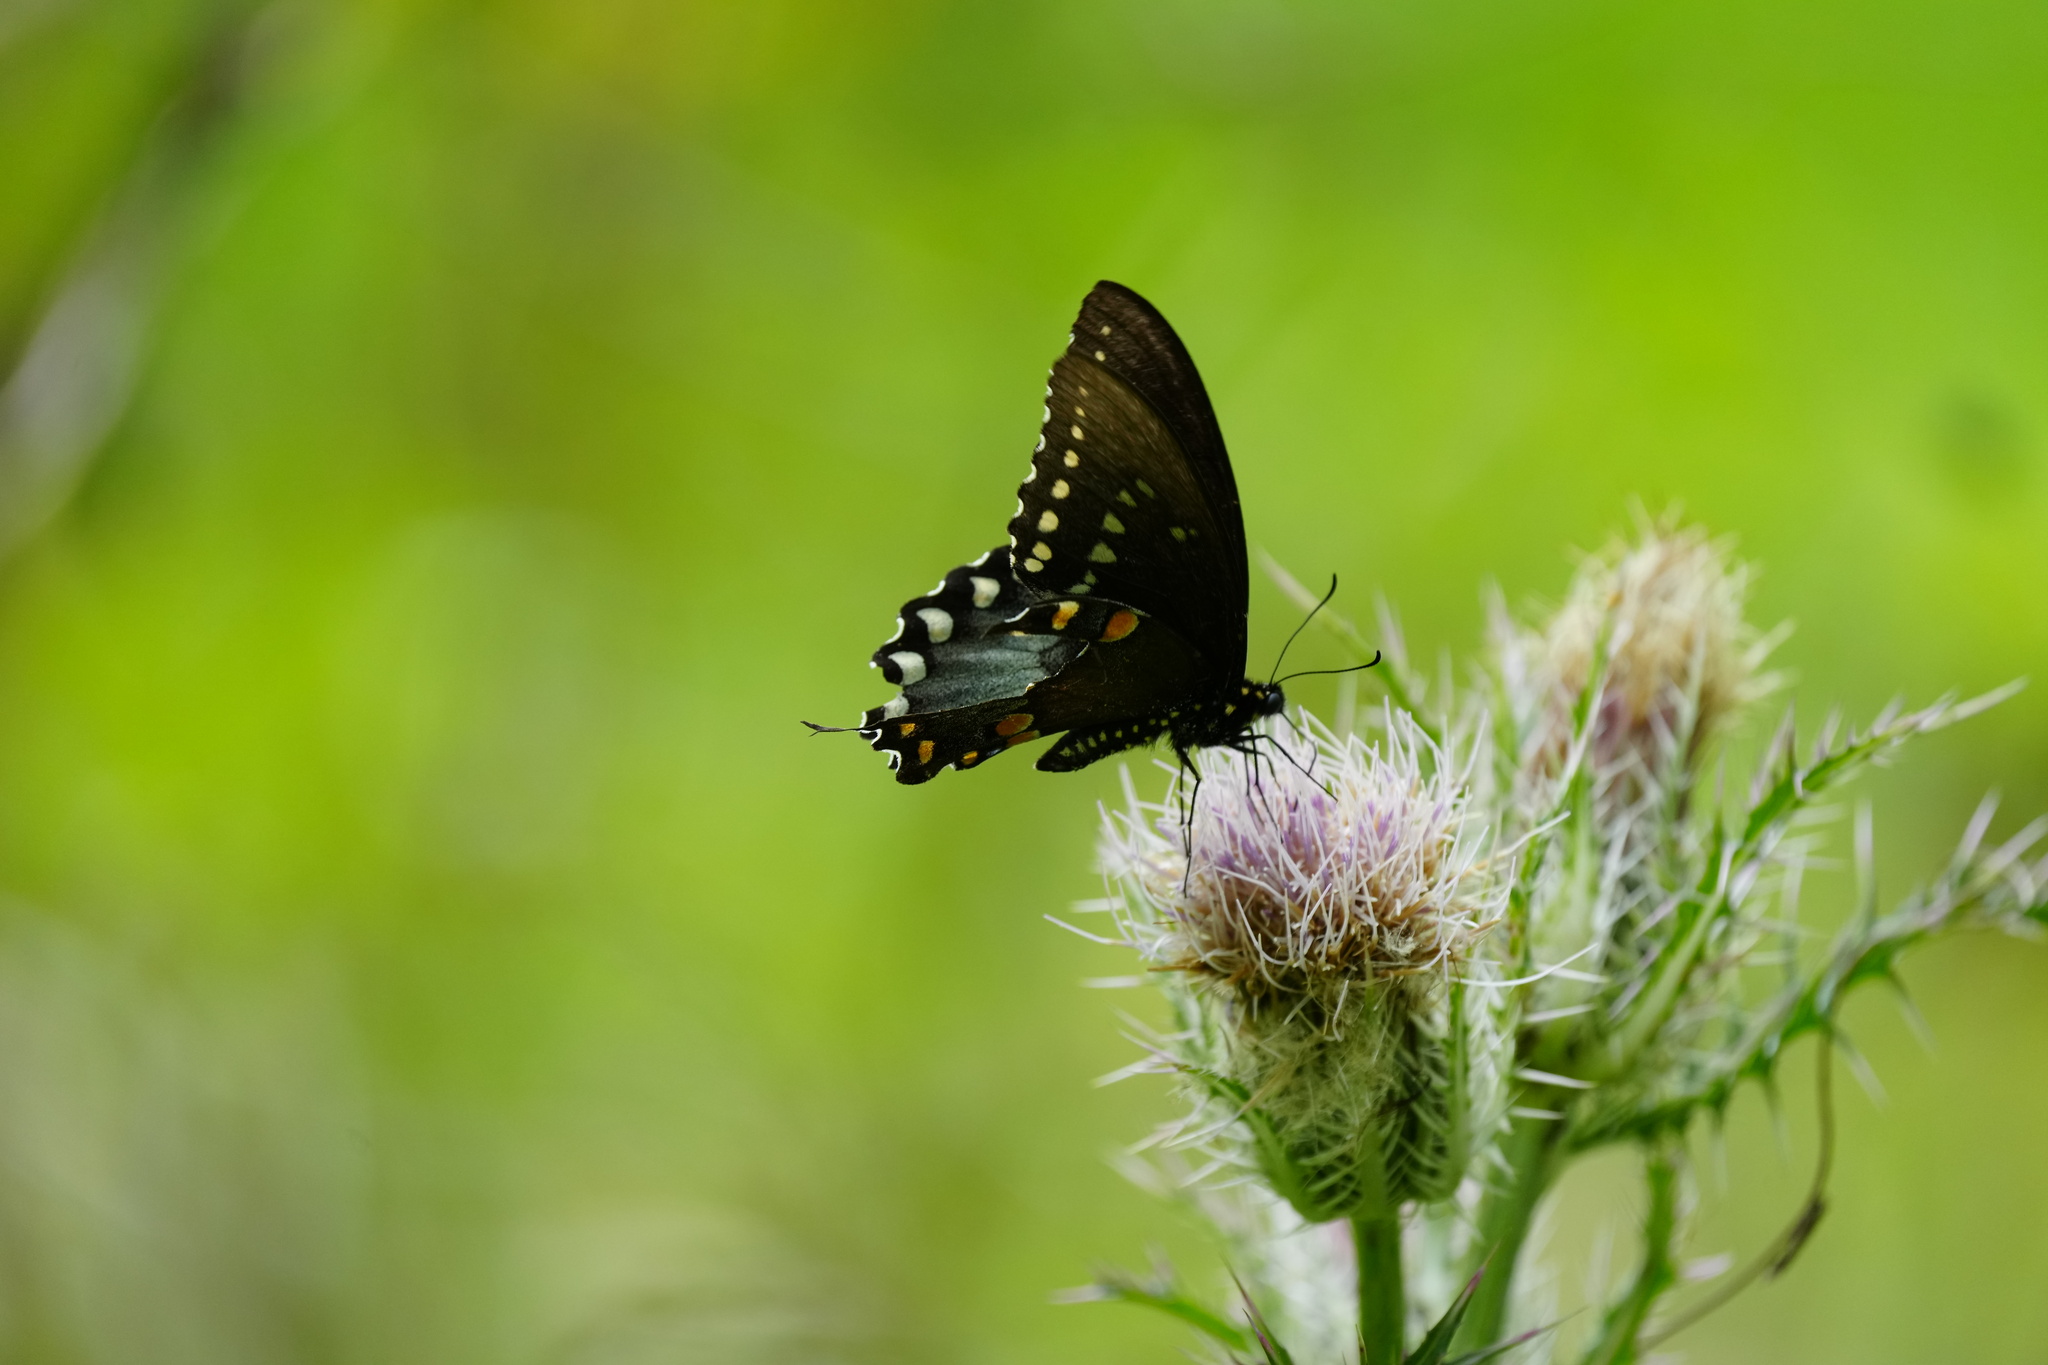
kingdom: Animalia
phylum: Arthropoda
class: Insecta
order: Lepidoptera
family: Papilionidae
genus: Papilio
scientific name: Papilio troilus
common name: Spicebush swallowtail
